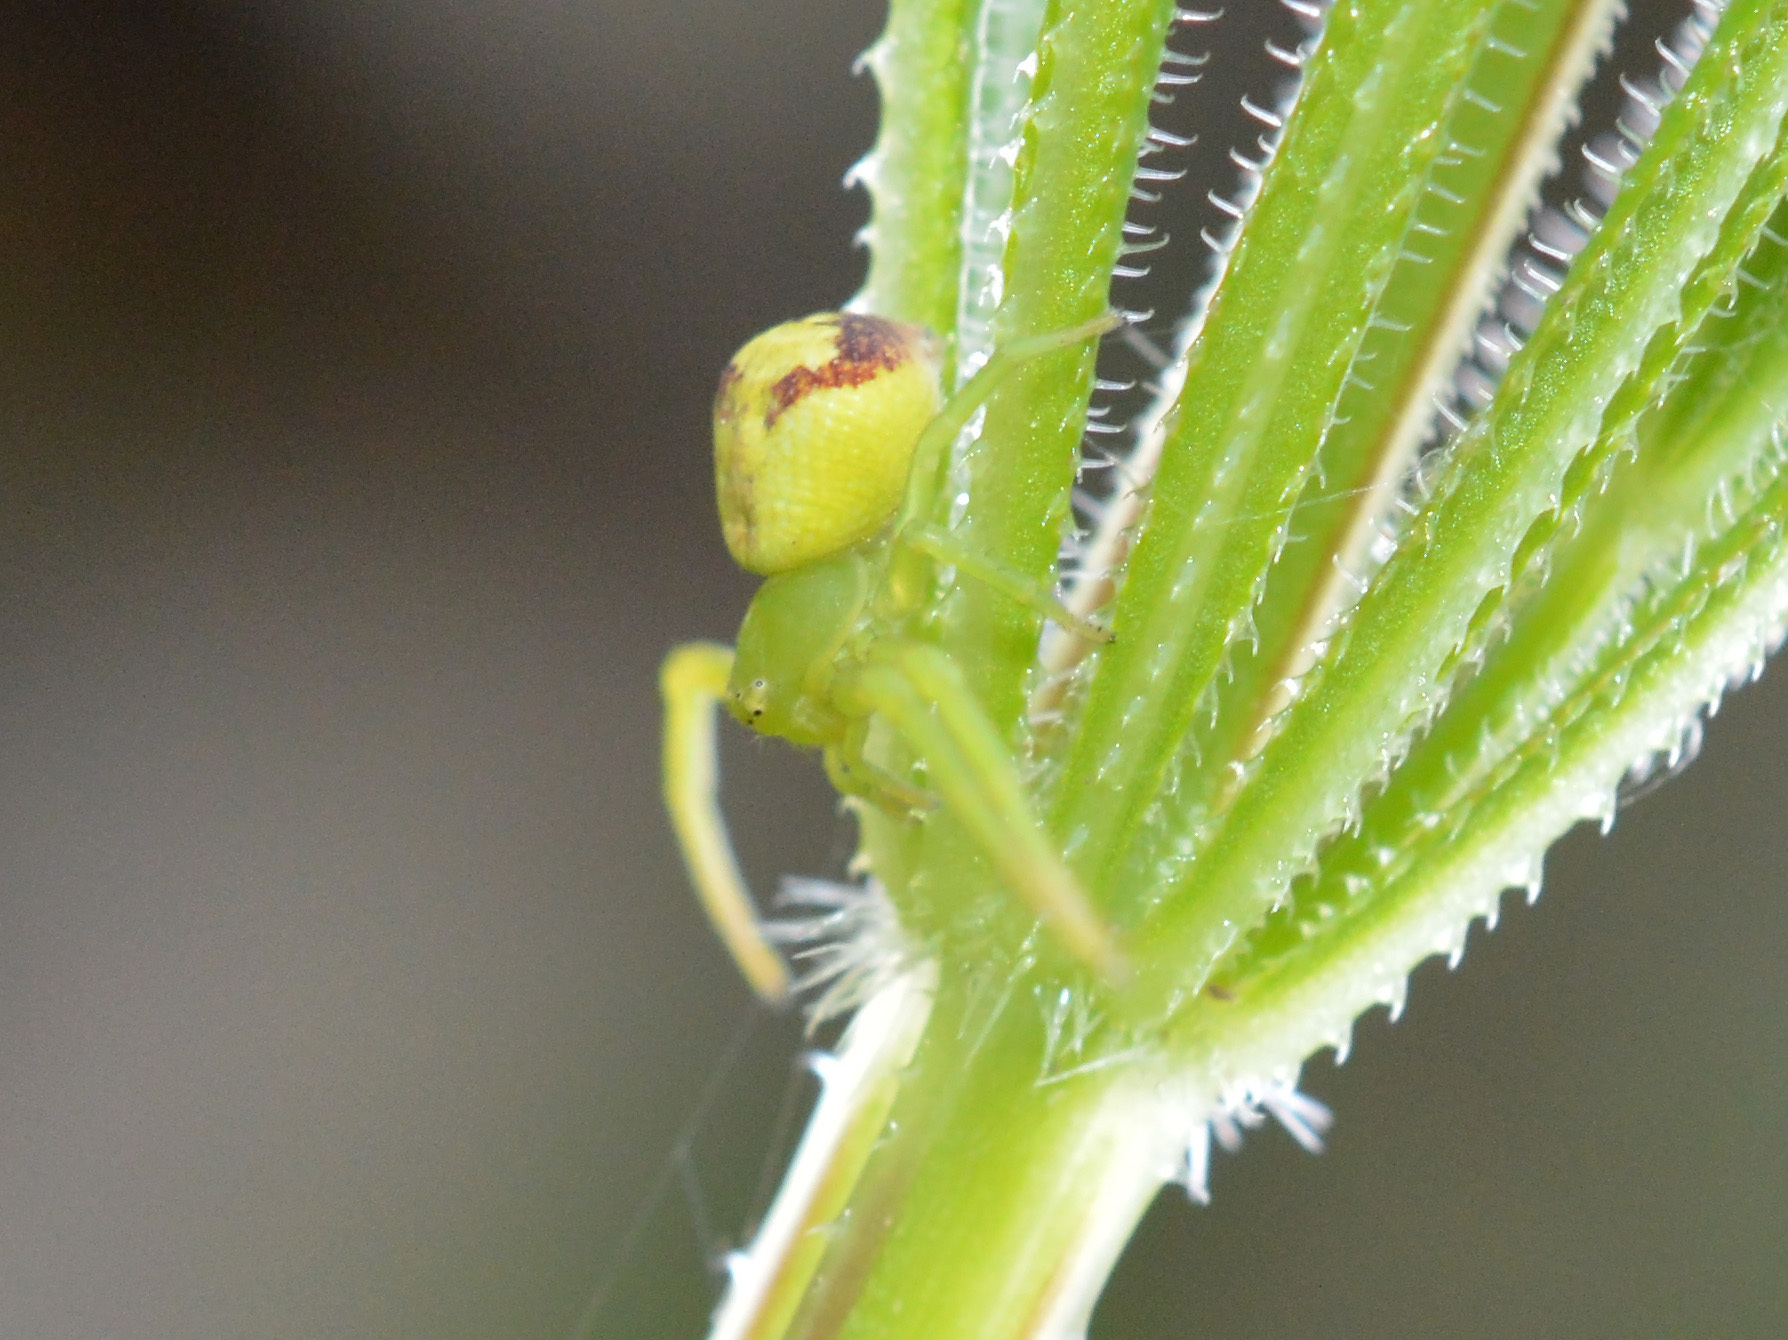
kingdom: Animalia
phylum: Arthropoda
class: Arachnida
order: Araneae
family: Thomisidae
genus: Ebrechtella
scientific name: Ebrechtella tricuspidata
